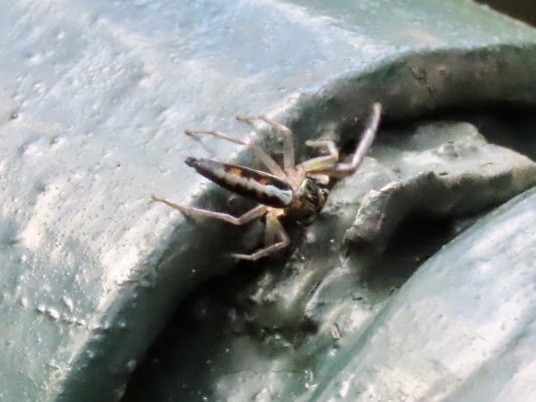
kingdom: Animalia
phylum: Arthropoda
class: Arachnida
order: Araneae
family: Salticidae
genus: Chrysilla
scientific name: Chrysilla acerosa
